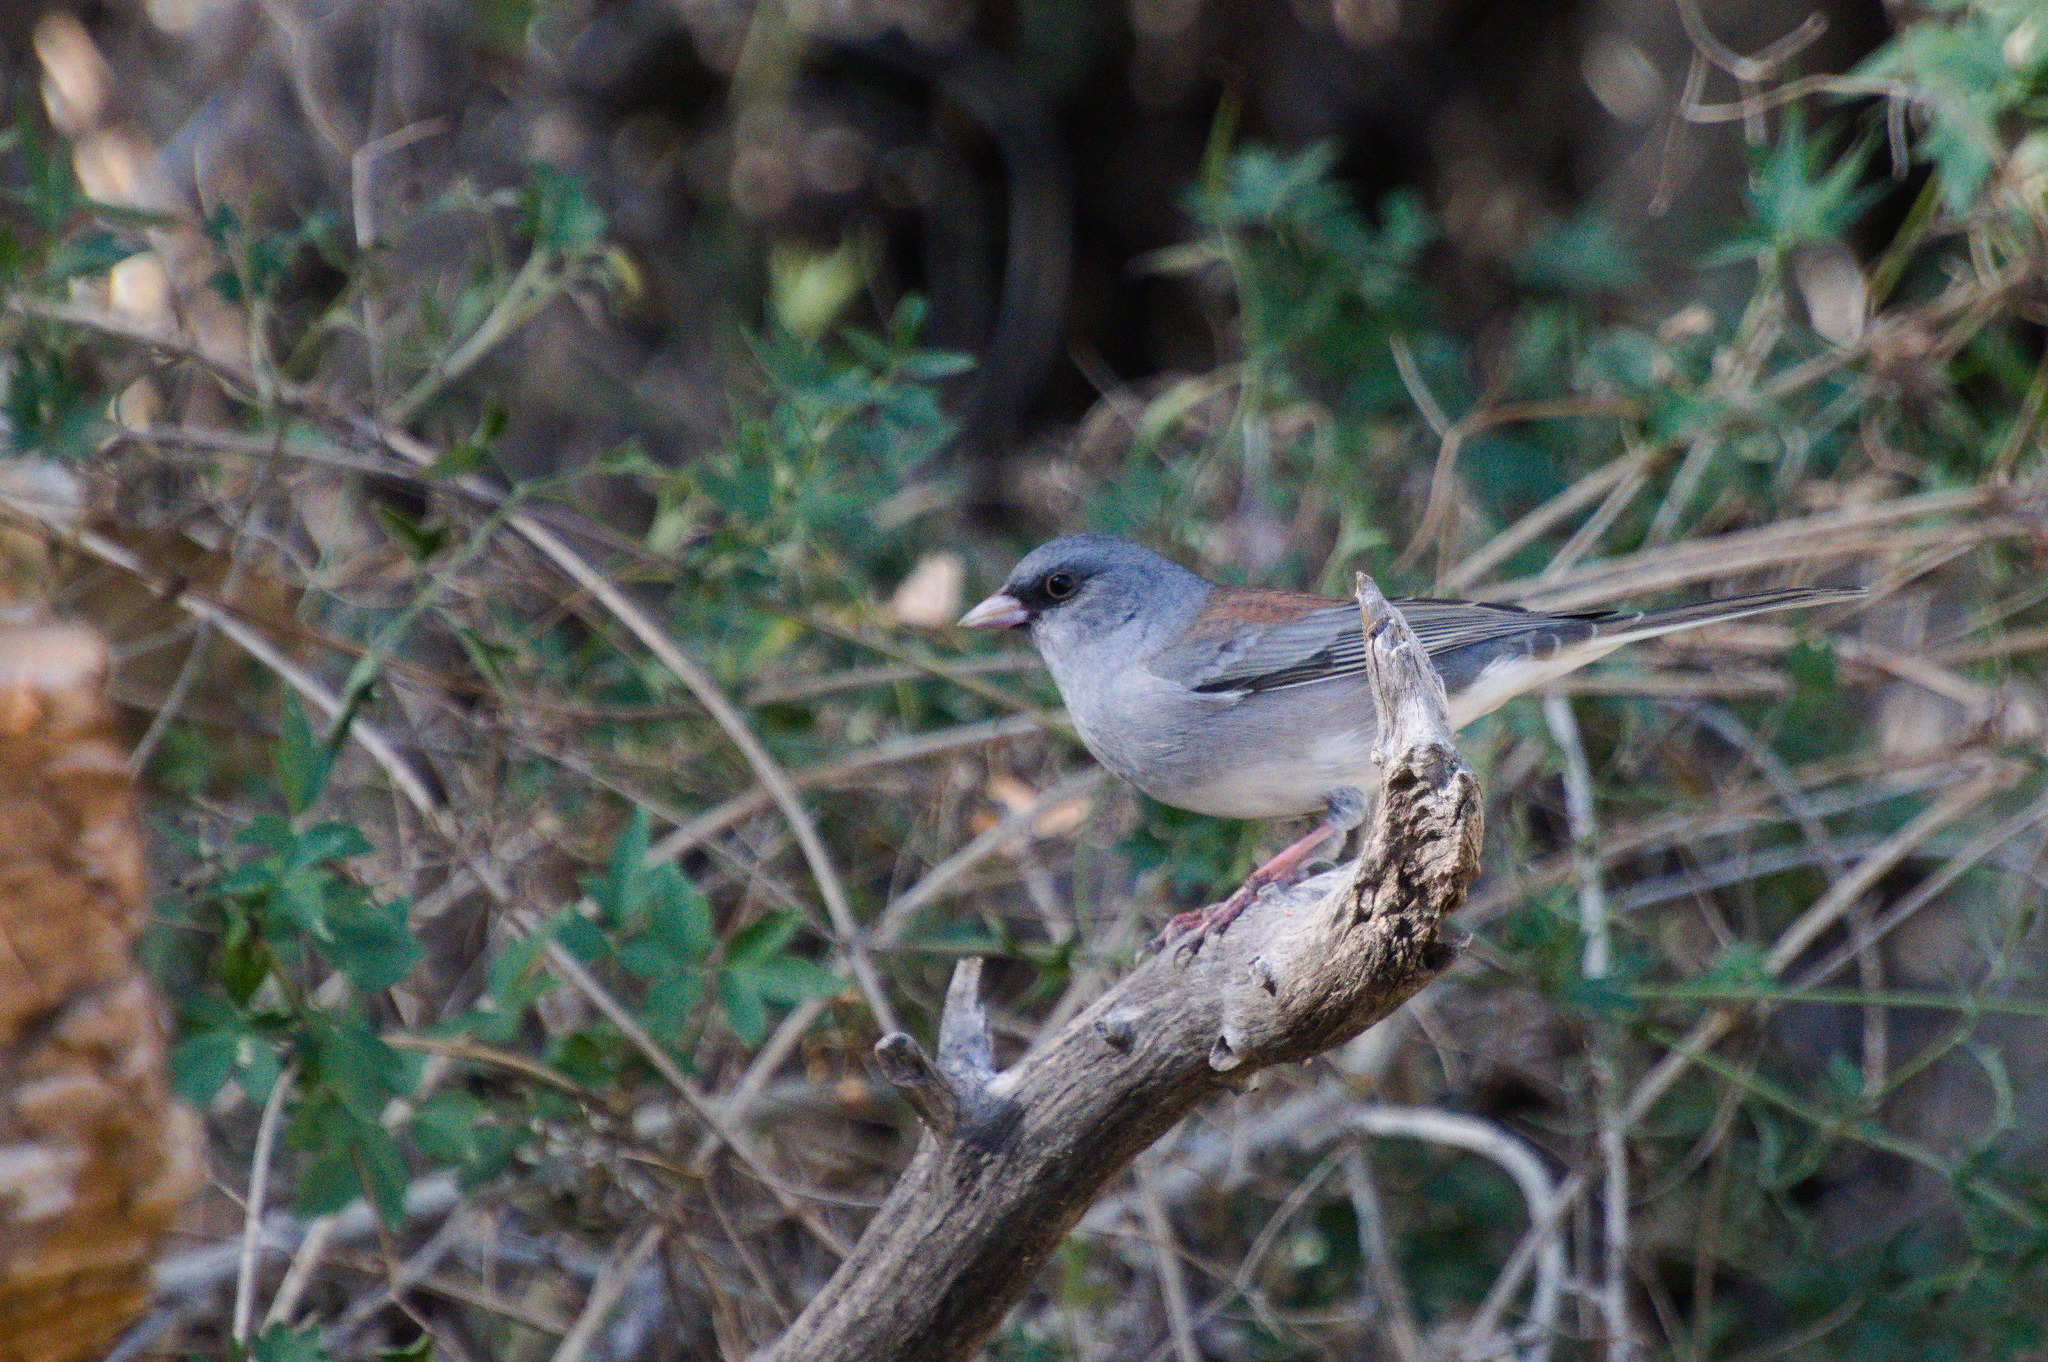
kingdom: Animalia
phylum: Chordata
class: Aves
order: Passeriformes
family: Passerellidae
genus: Junco
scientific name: Junco hyemalis
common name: Dark-eyed junco
